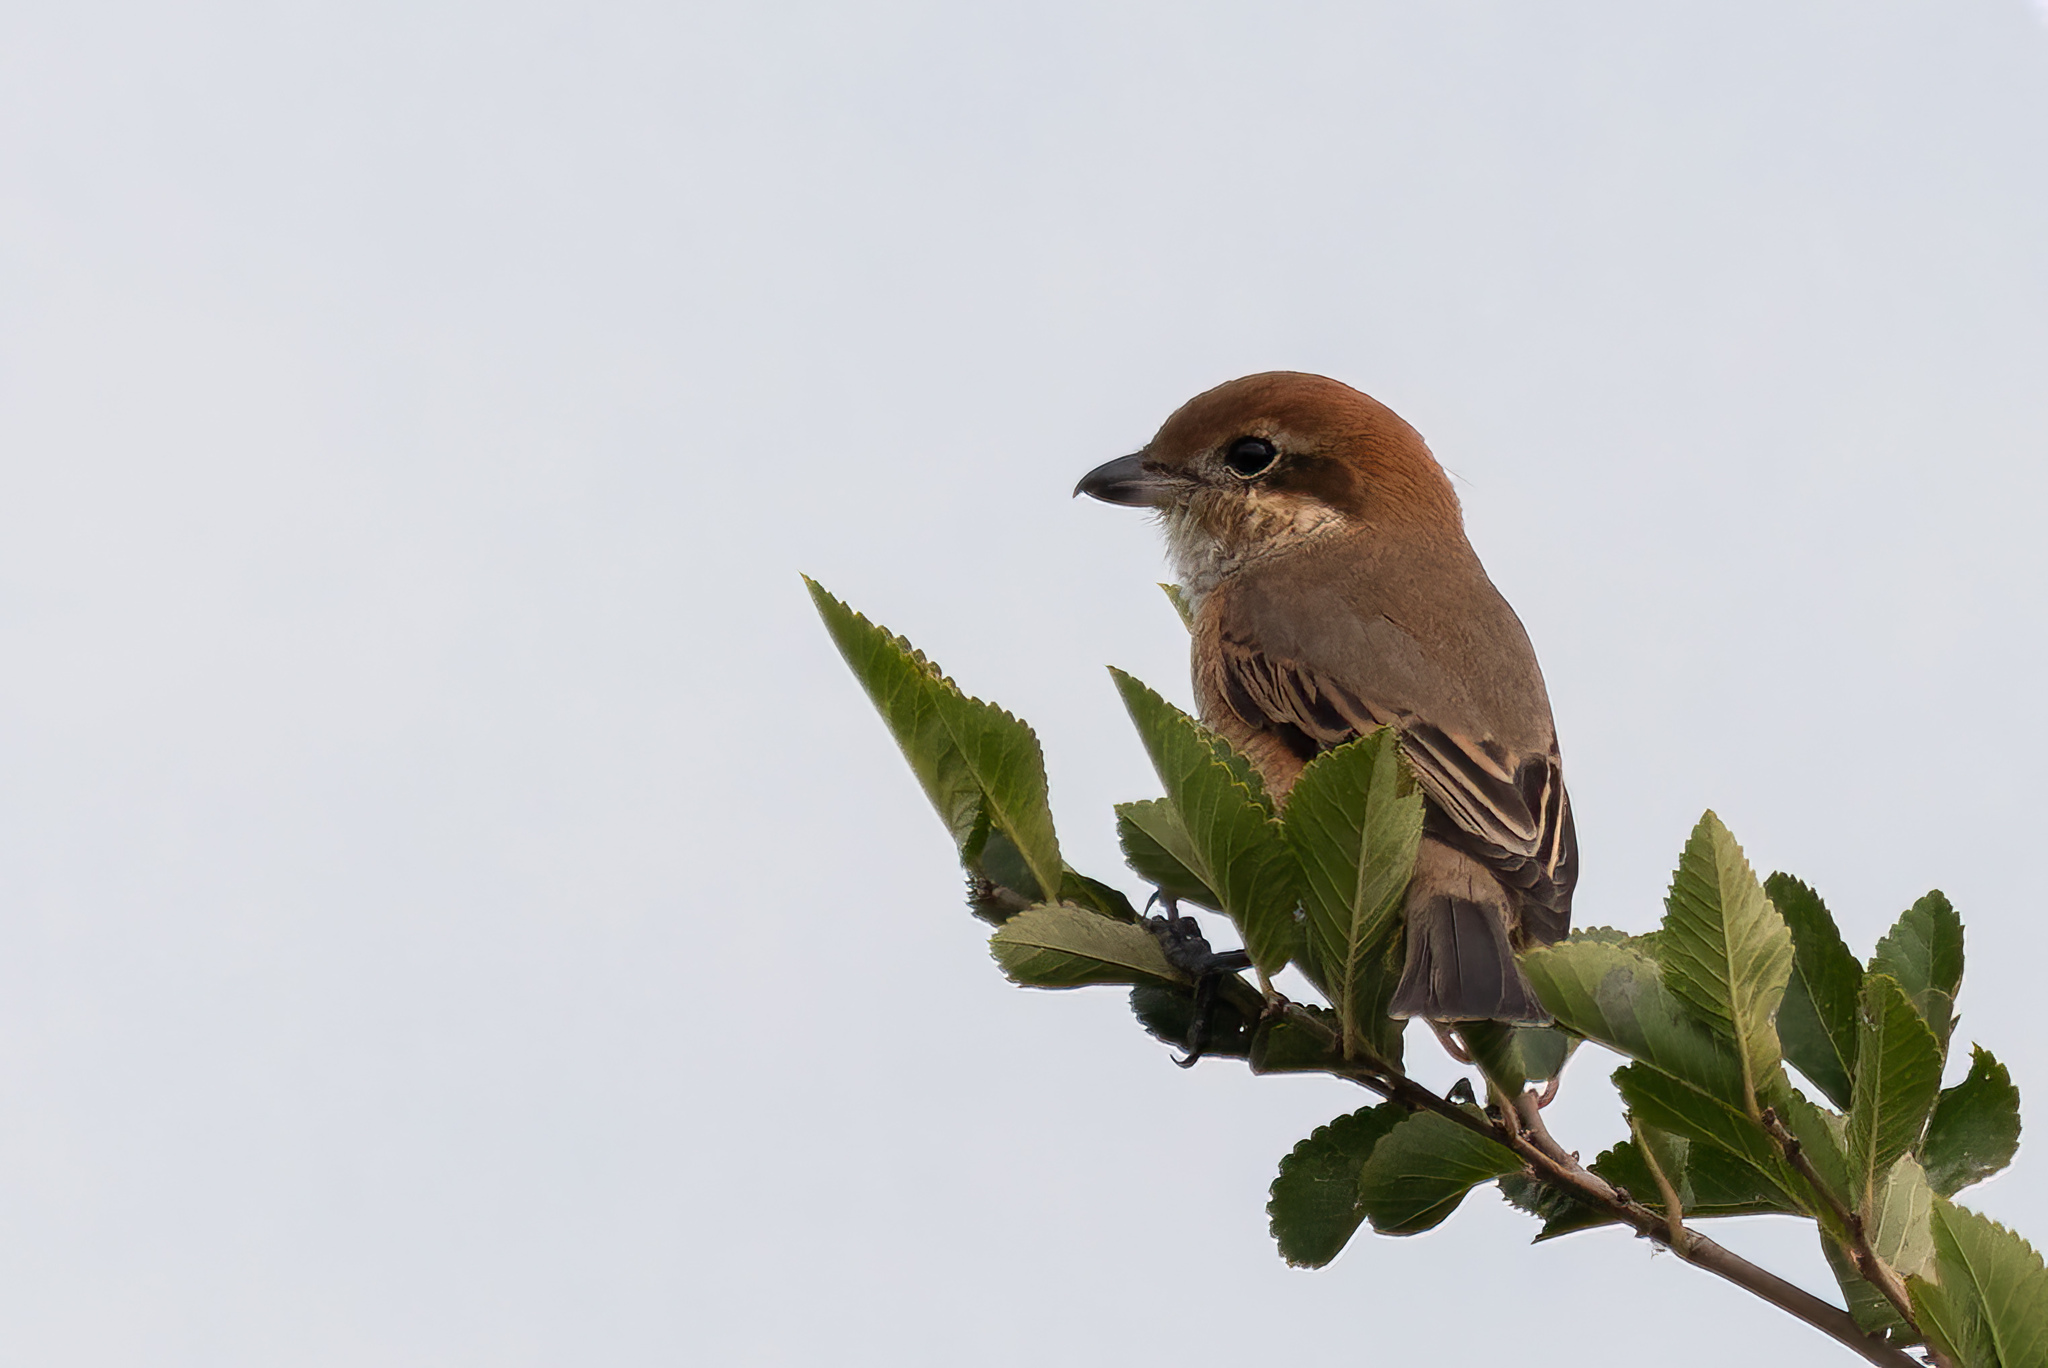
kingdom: Animalia
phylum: Chordata
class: Aves
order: Passeriformes
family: Laniidae
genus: Lanius
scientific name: Lanius bucephalus
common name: Bull-headed shrike
